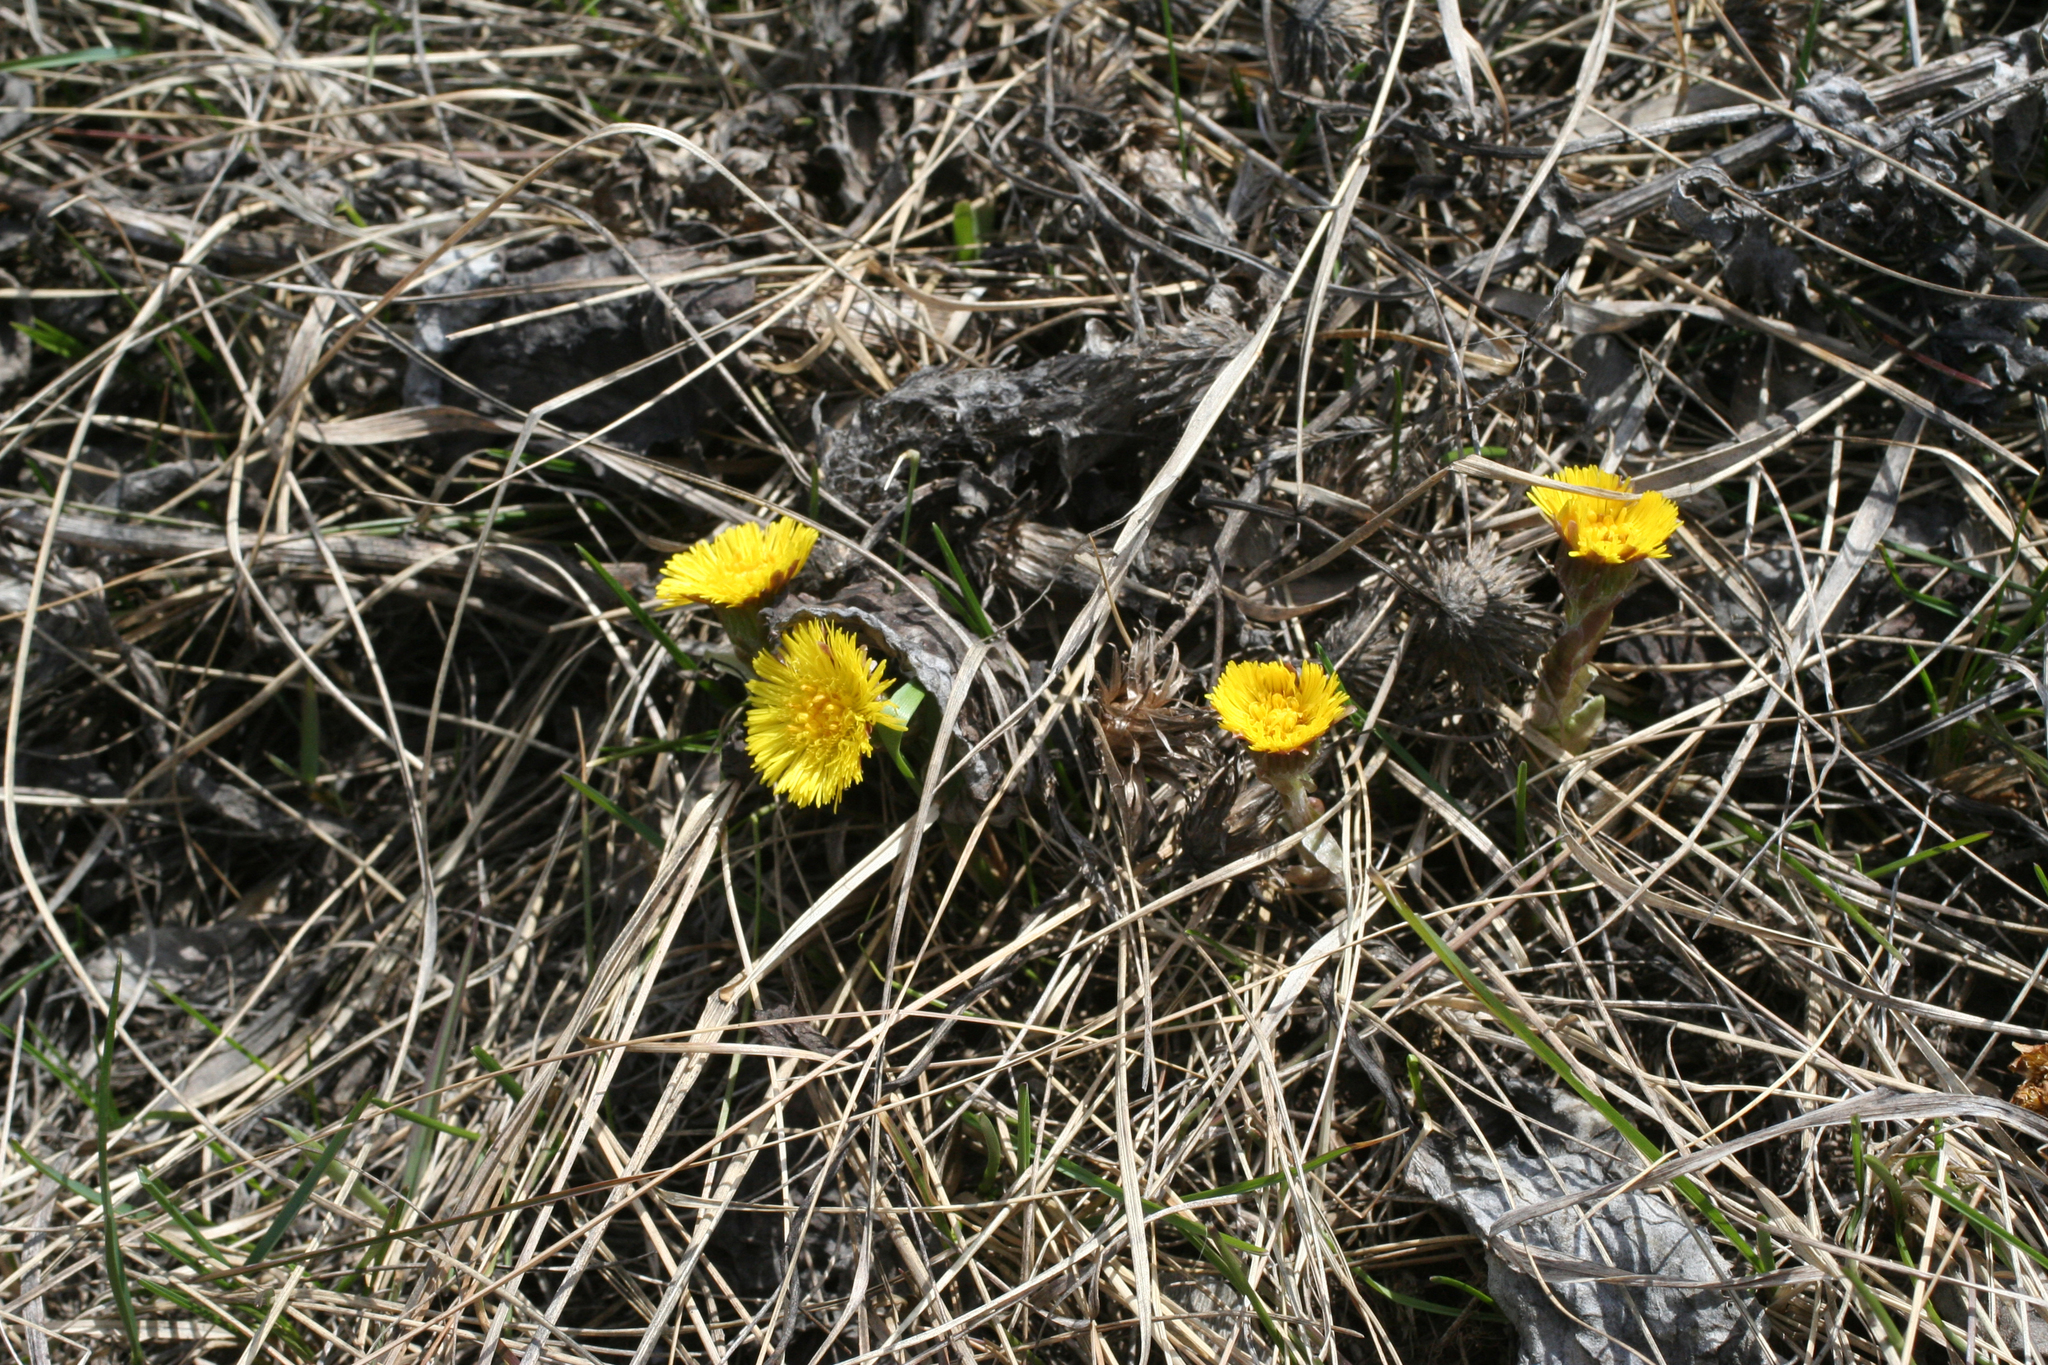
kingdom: Plantae
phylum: Tracheophyta
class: Magnoliopsida
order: Asterales
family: Asteraceae
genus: Tussilago
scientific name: Tussilago farfara
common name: Coltsfoot
